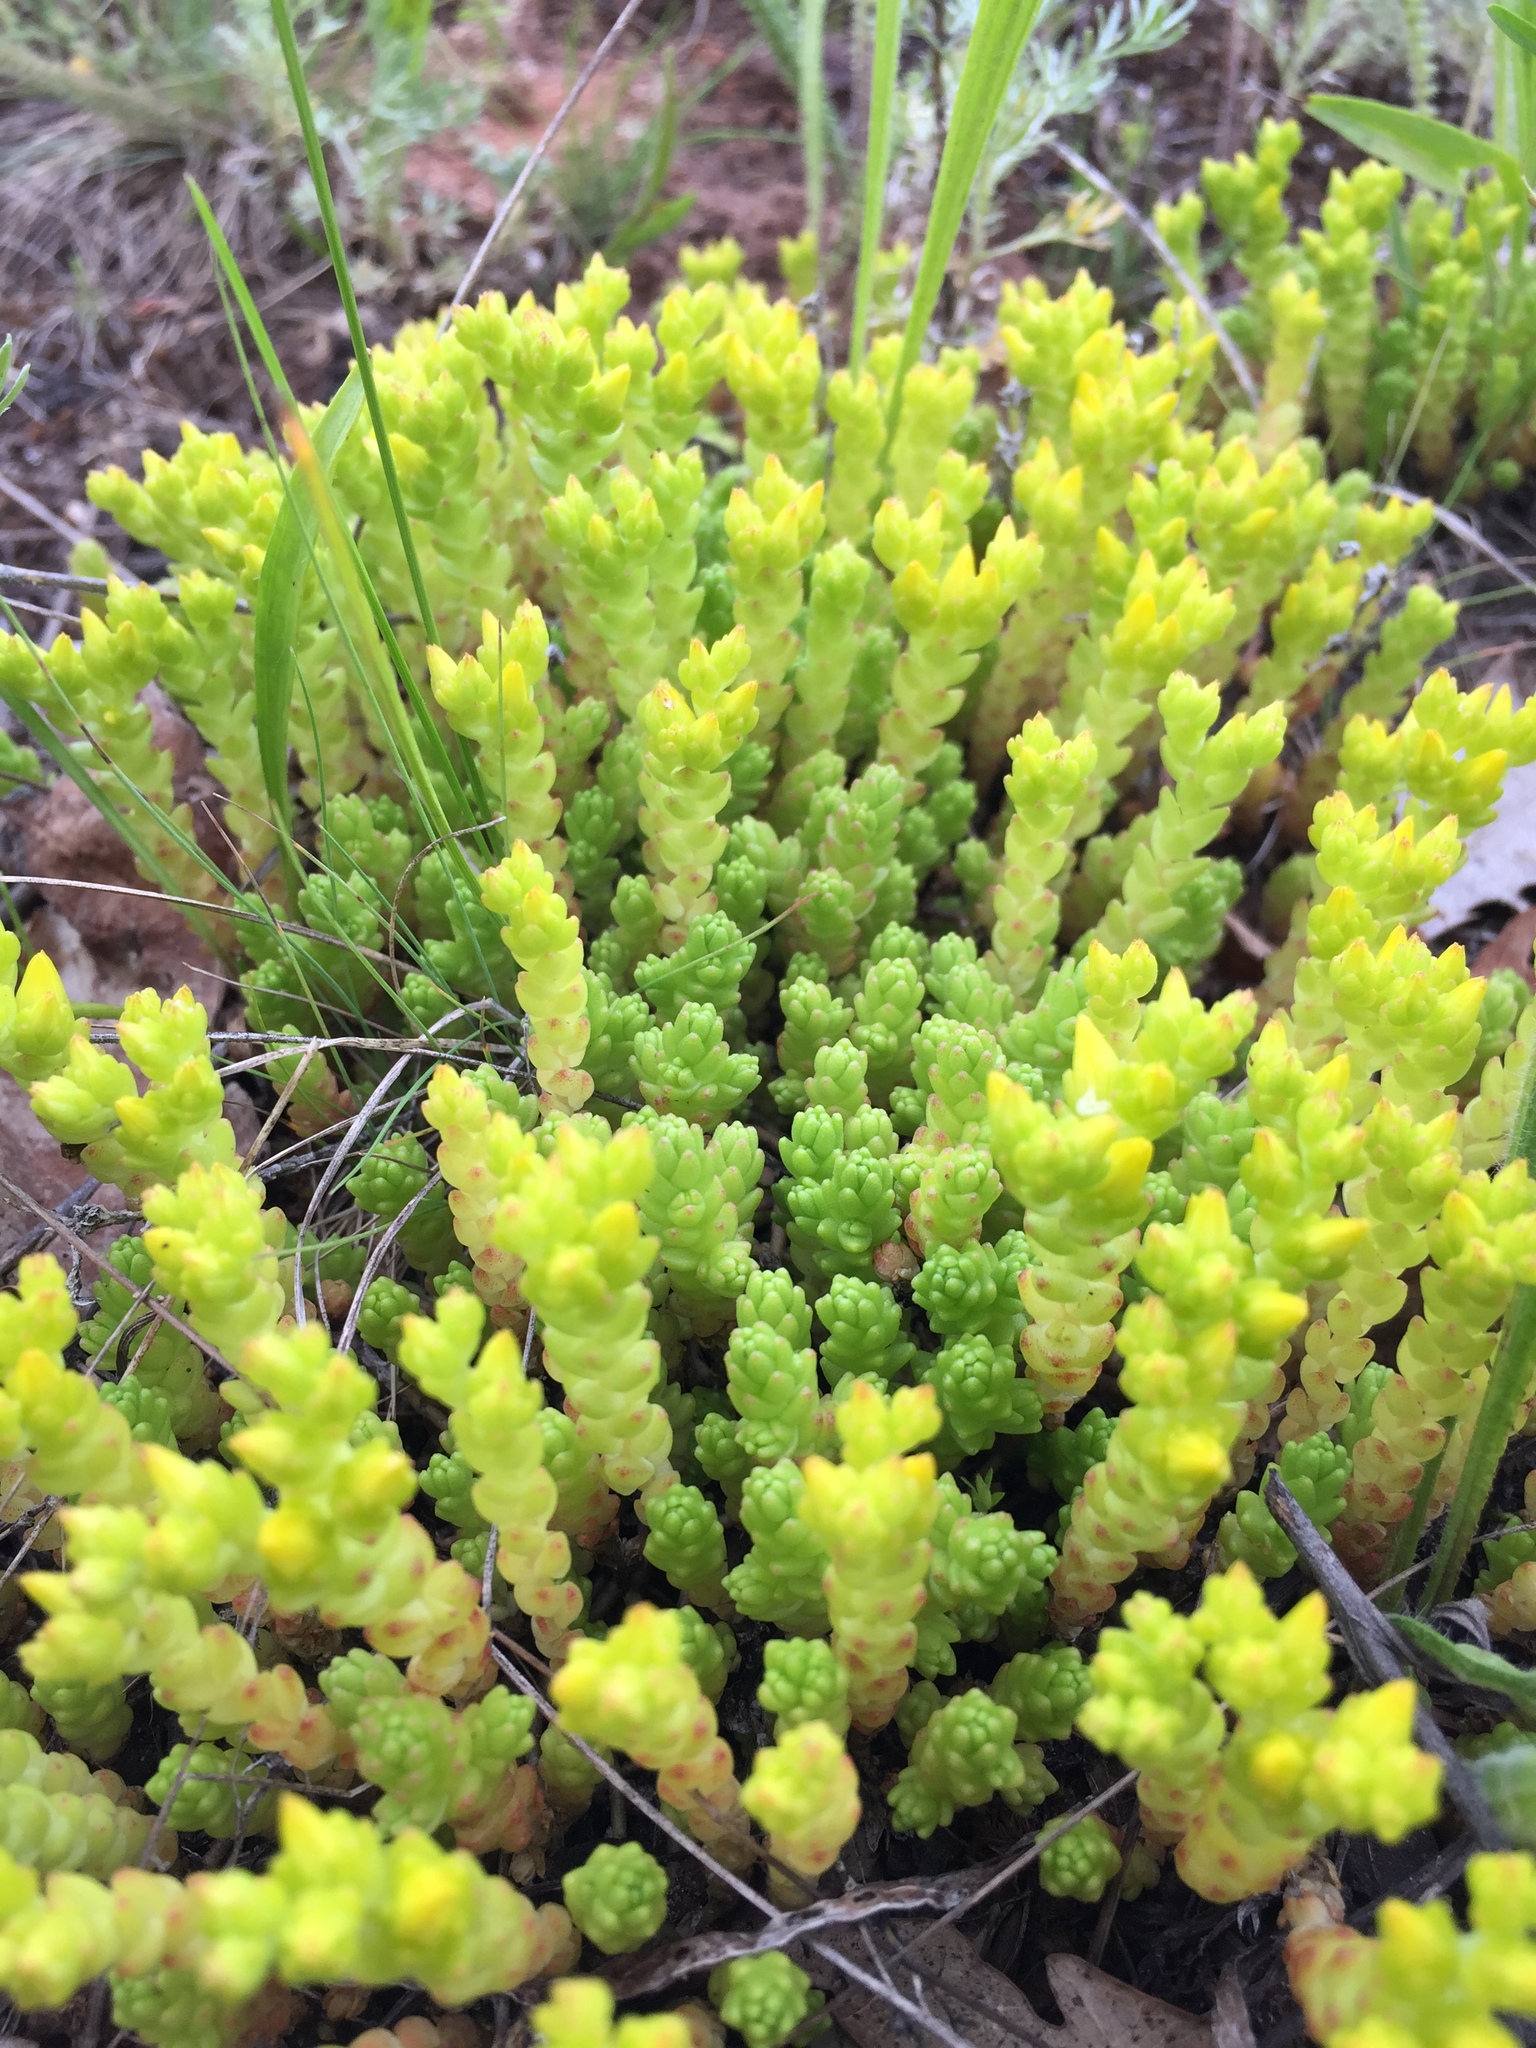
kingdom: Plantae
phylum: Tracheophyta
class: Magnoliopsida
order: Saxifragales
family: Crassulaceae
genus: Sedum
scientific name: Sedum acre
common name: Biting stonecrop
